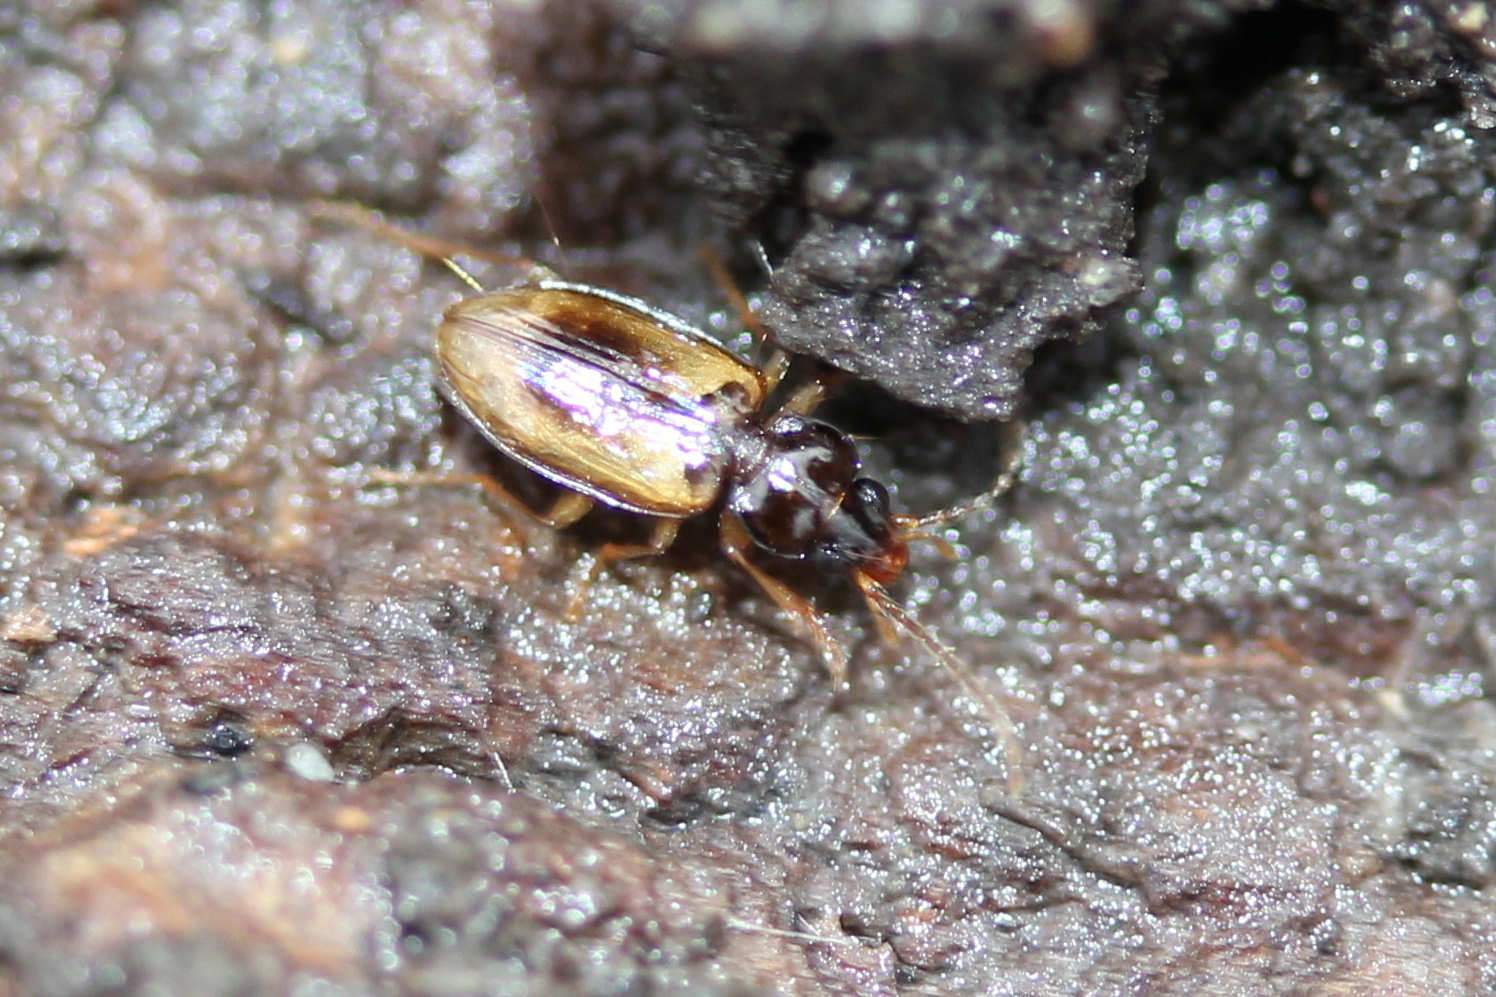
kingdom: Animalia
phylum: Arthropoda
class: Insecta
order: Coleoptera
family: Carabidae
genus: Tachys
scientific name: Tachys proximus
